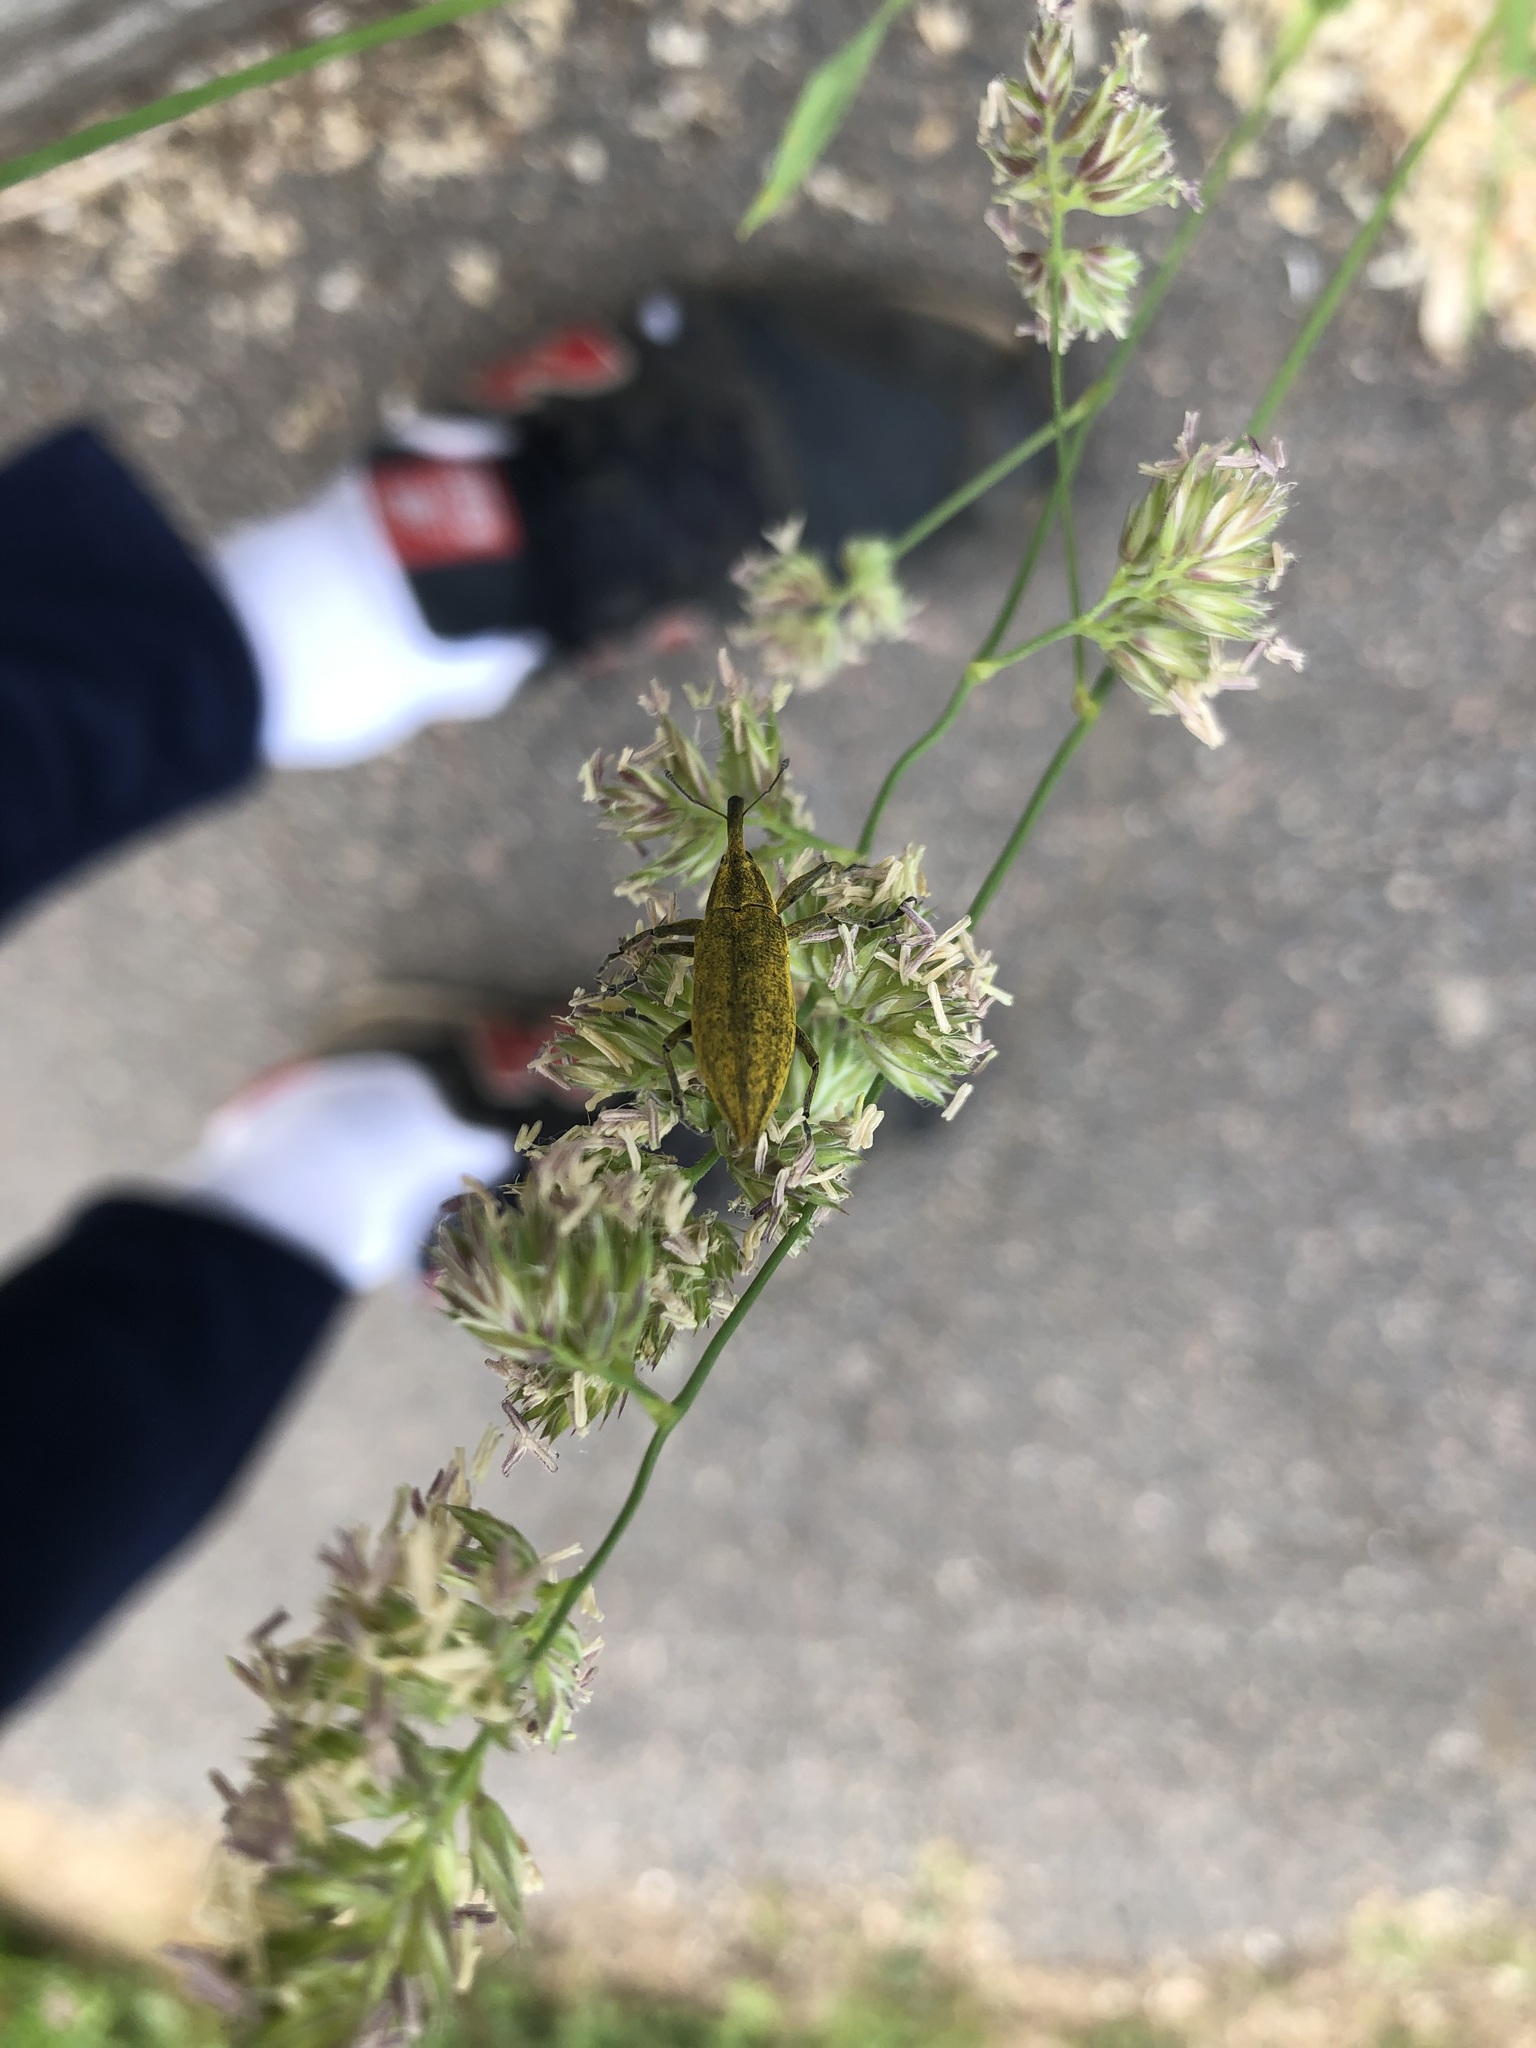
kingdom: Animalia
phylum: Arthropoda
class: Insecta
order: Coleoptera
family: Curculionidae
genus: Lixus
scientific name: Lixus iridis
